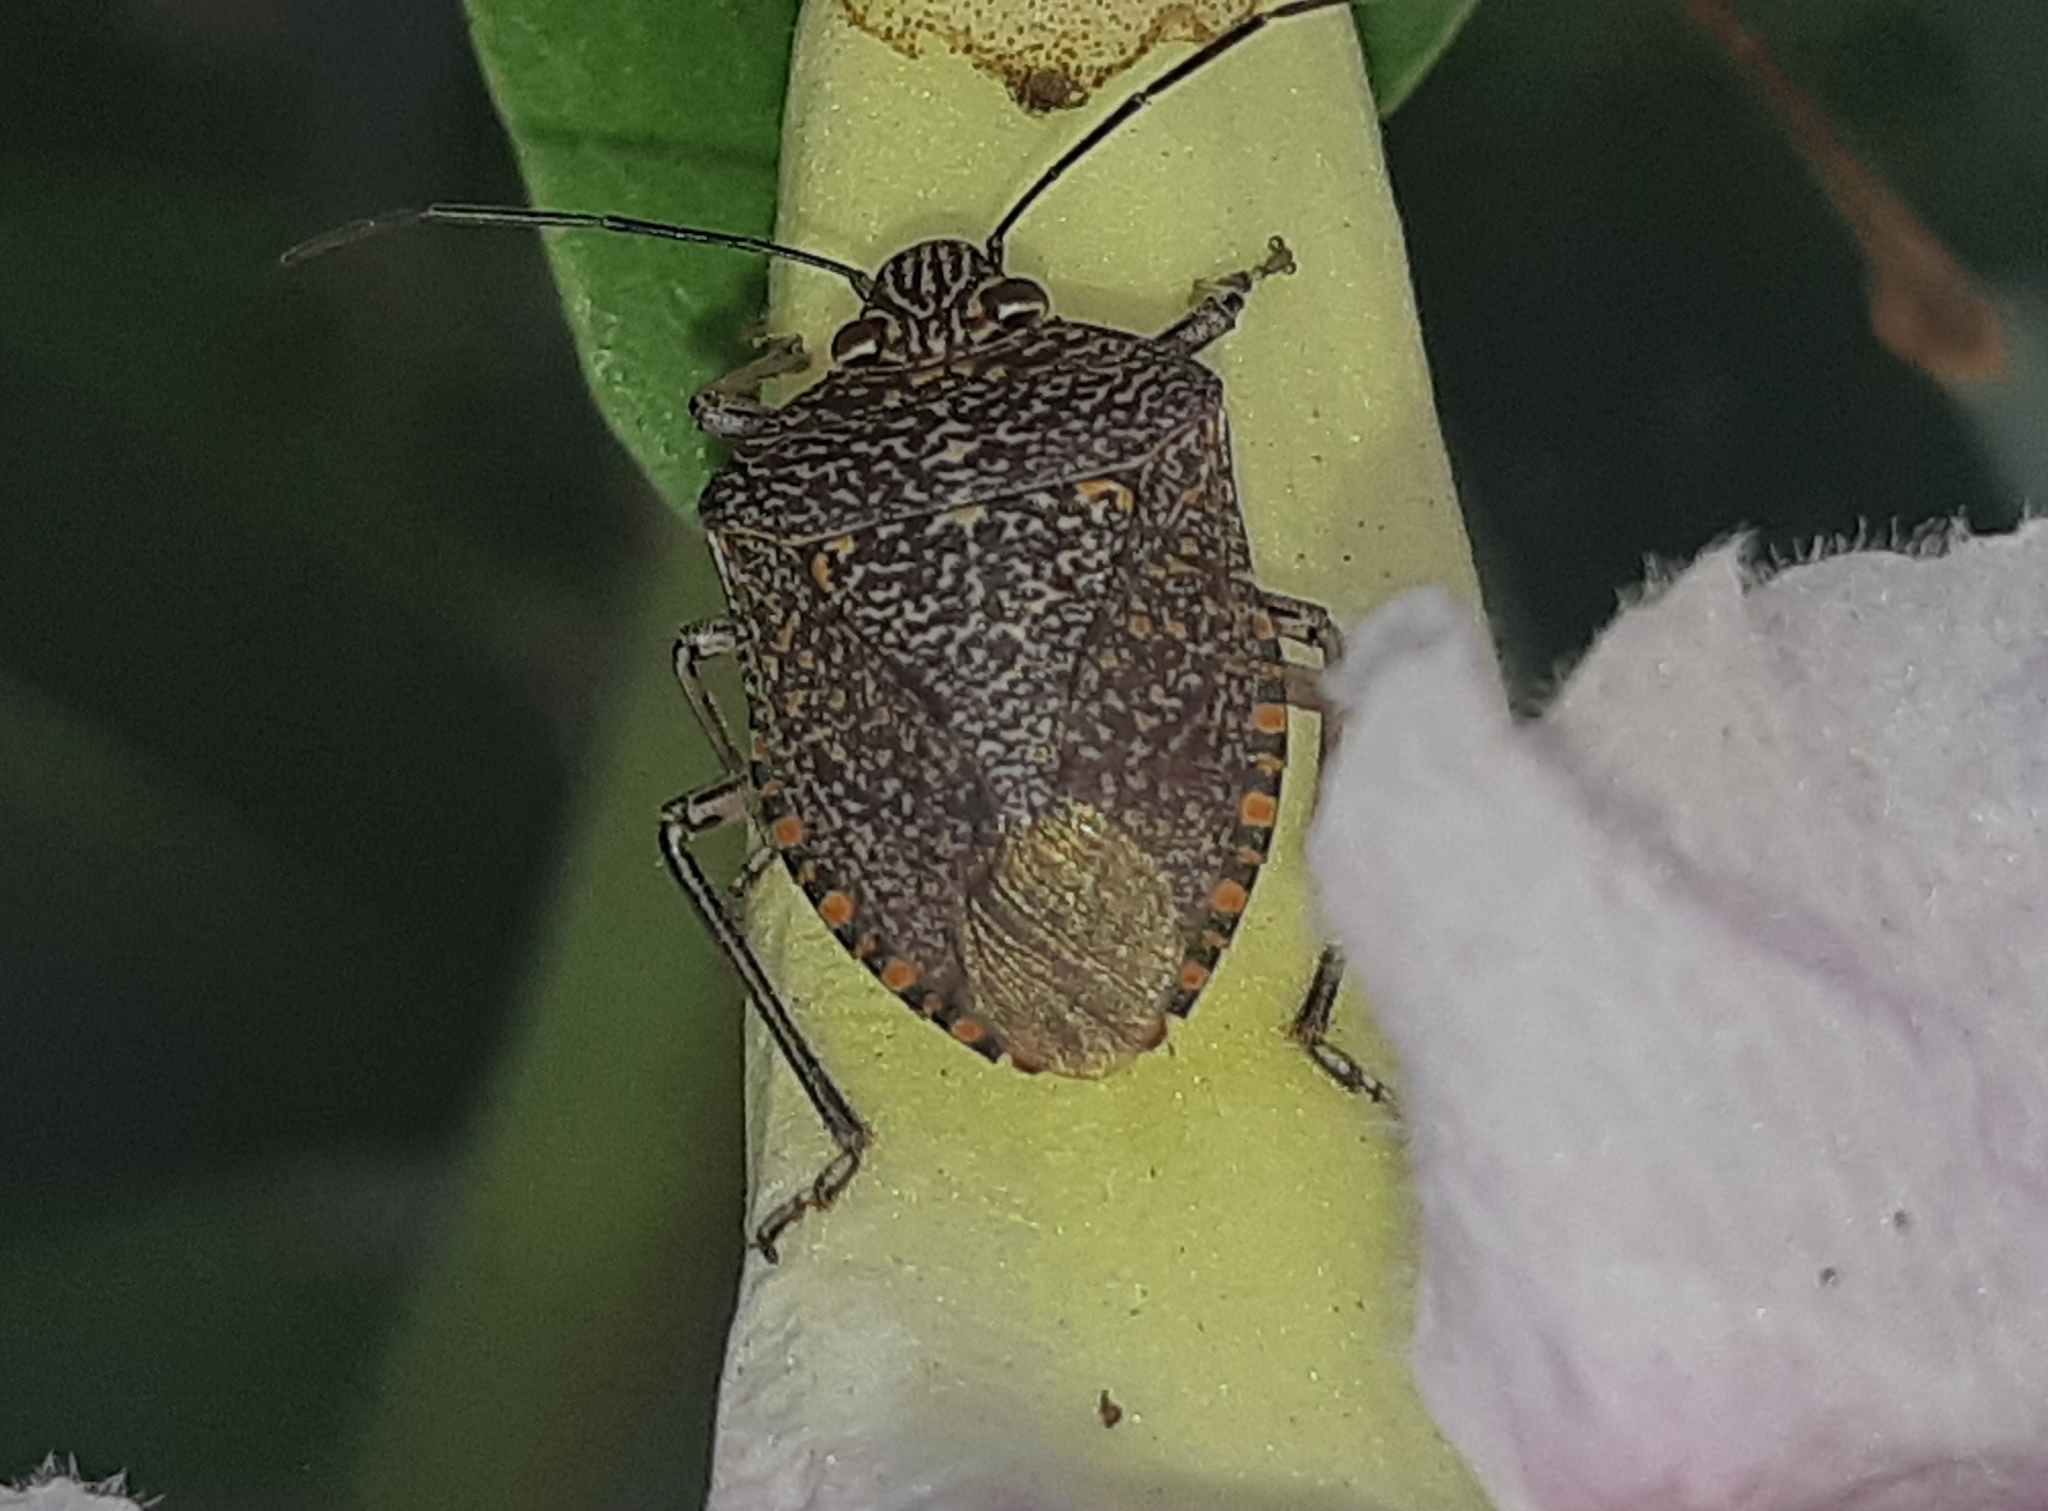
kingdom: Animalia
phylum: Arthropoda
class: Insecta
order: Hemiptera
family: Pentatomidae
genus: Pellaea
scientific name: Pellaea stictica
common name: Stink bug
